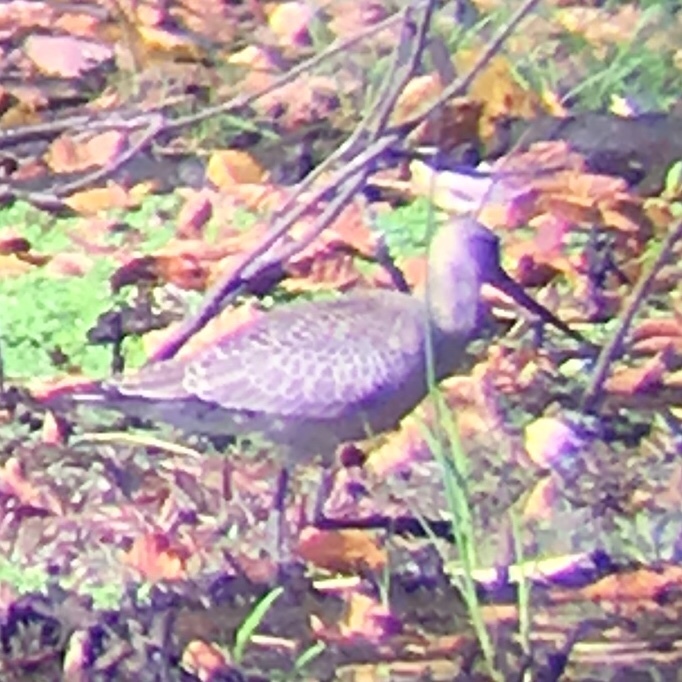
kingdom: Animalia
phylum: Chordata
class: Aves
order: Charadriiformes
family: Scolopacidae
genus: Limosa
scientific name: Limosa haemastica
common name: Hudsonian godwit
